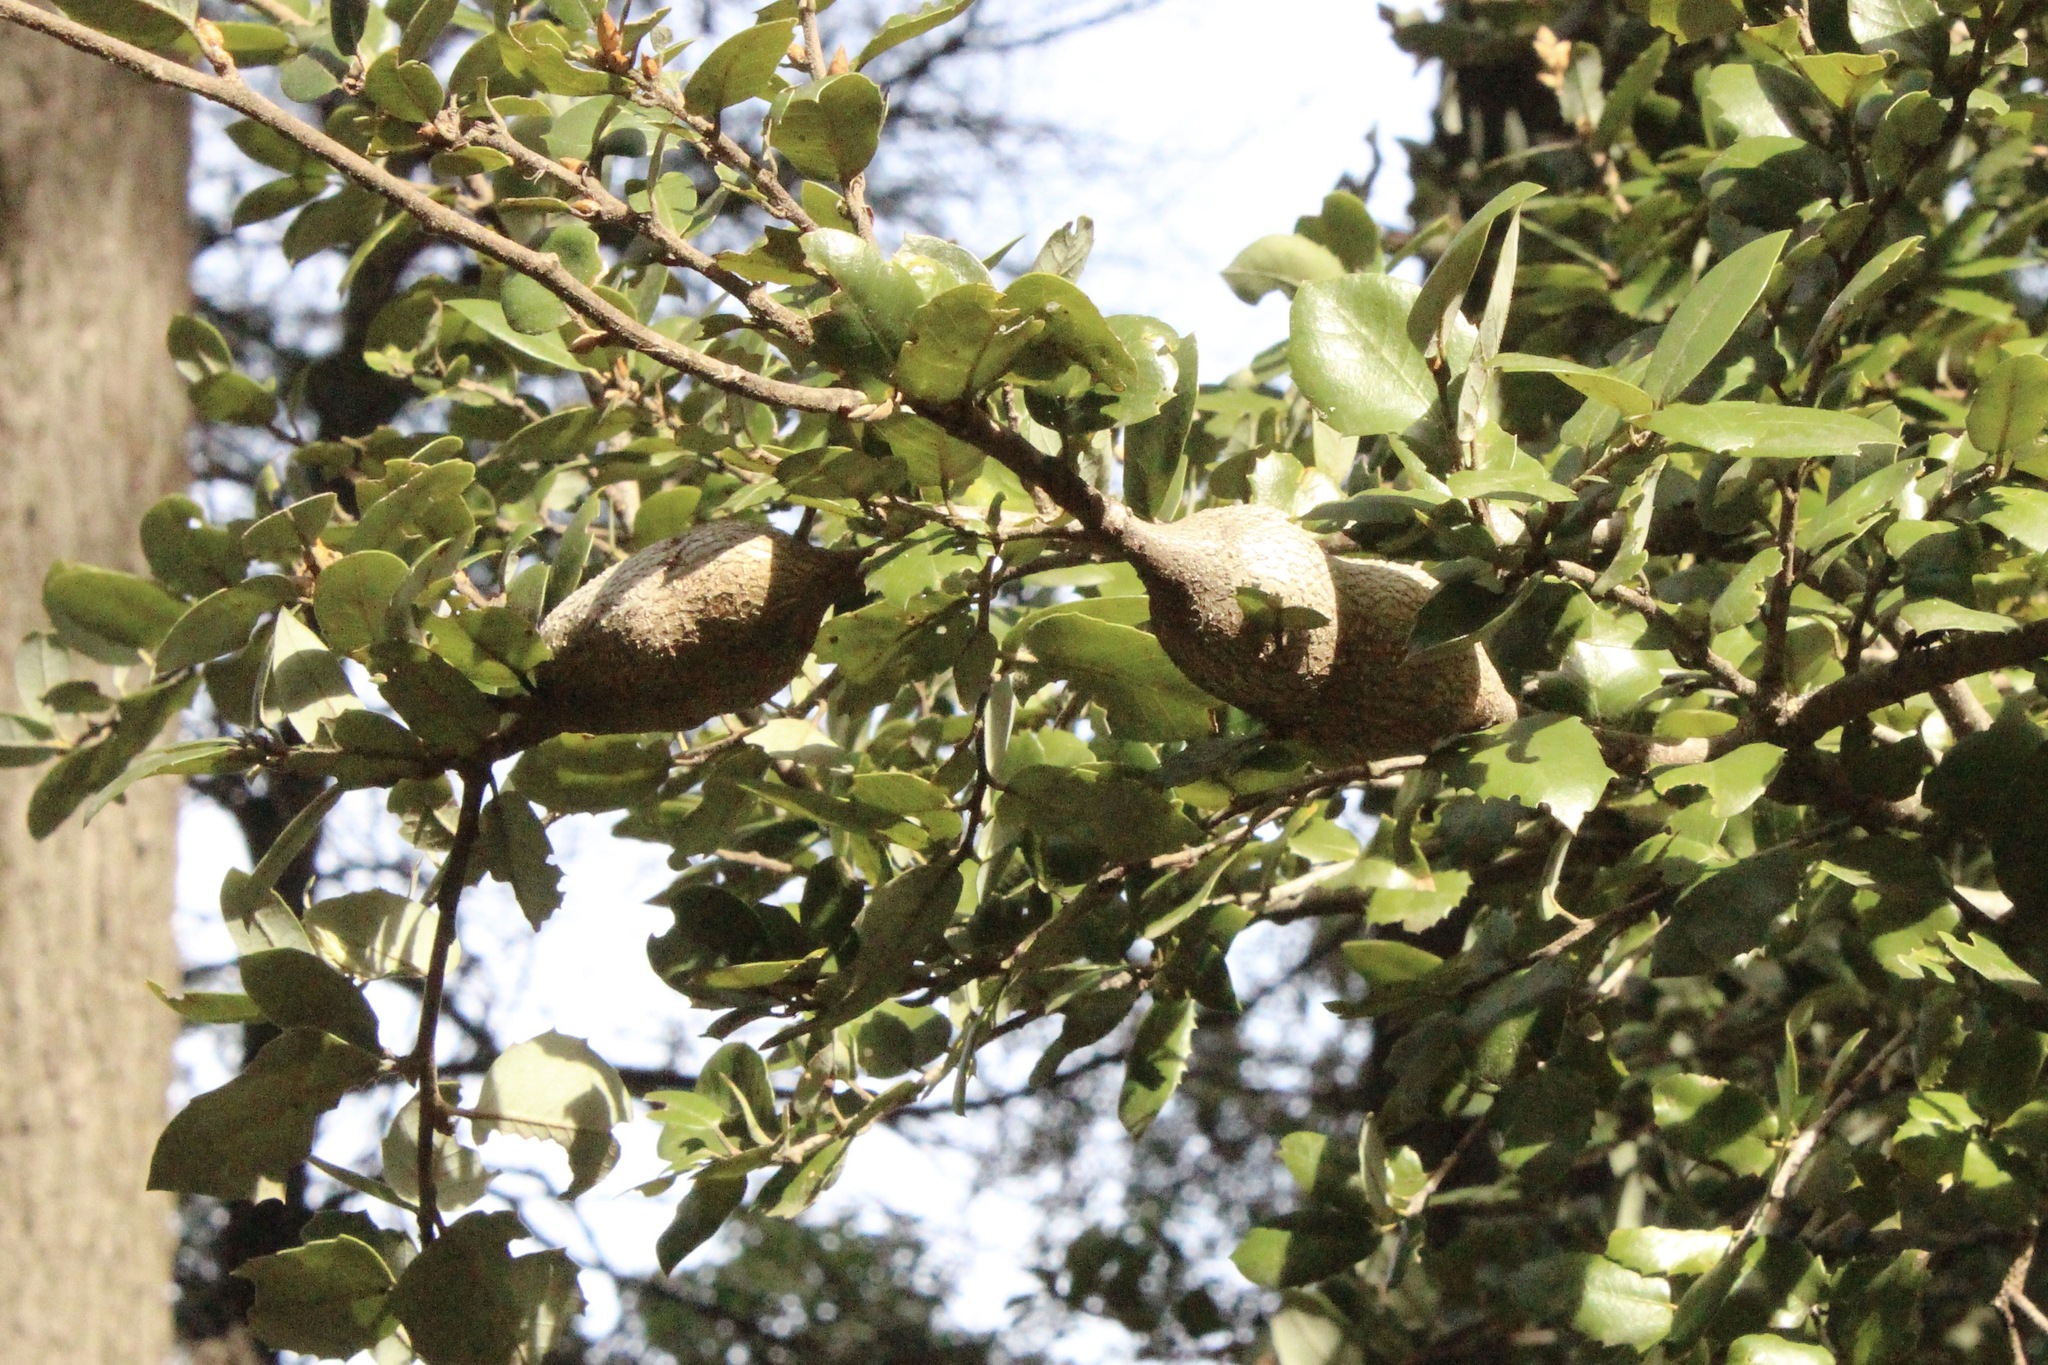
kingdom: Animalia
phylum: Arthropoda
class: Insecta
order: Hymenoptera
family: Cynipidae
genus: Disholcaspis
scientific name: Disholcaspis spectabilis
